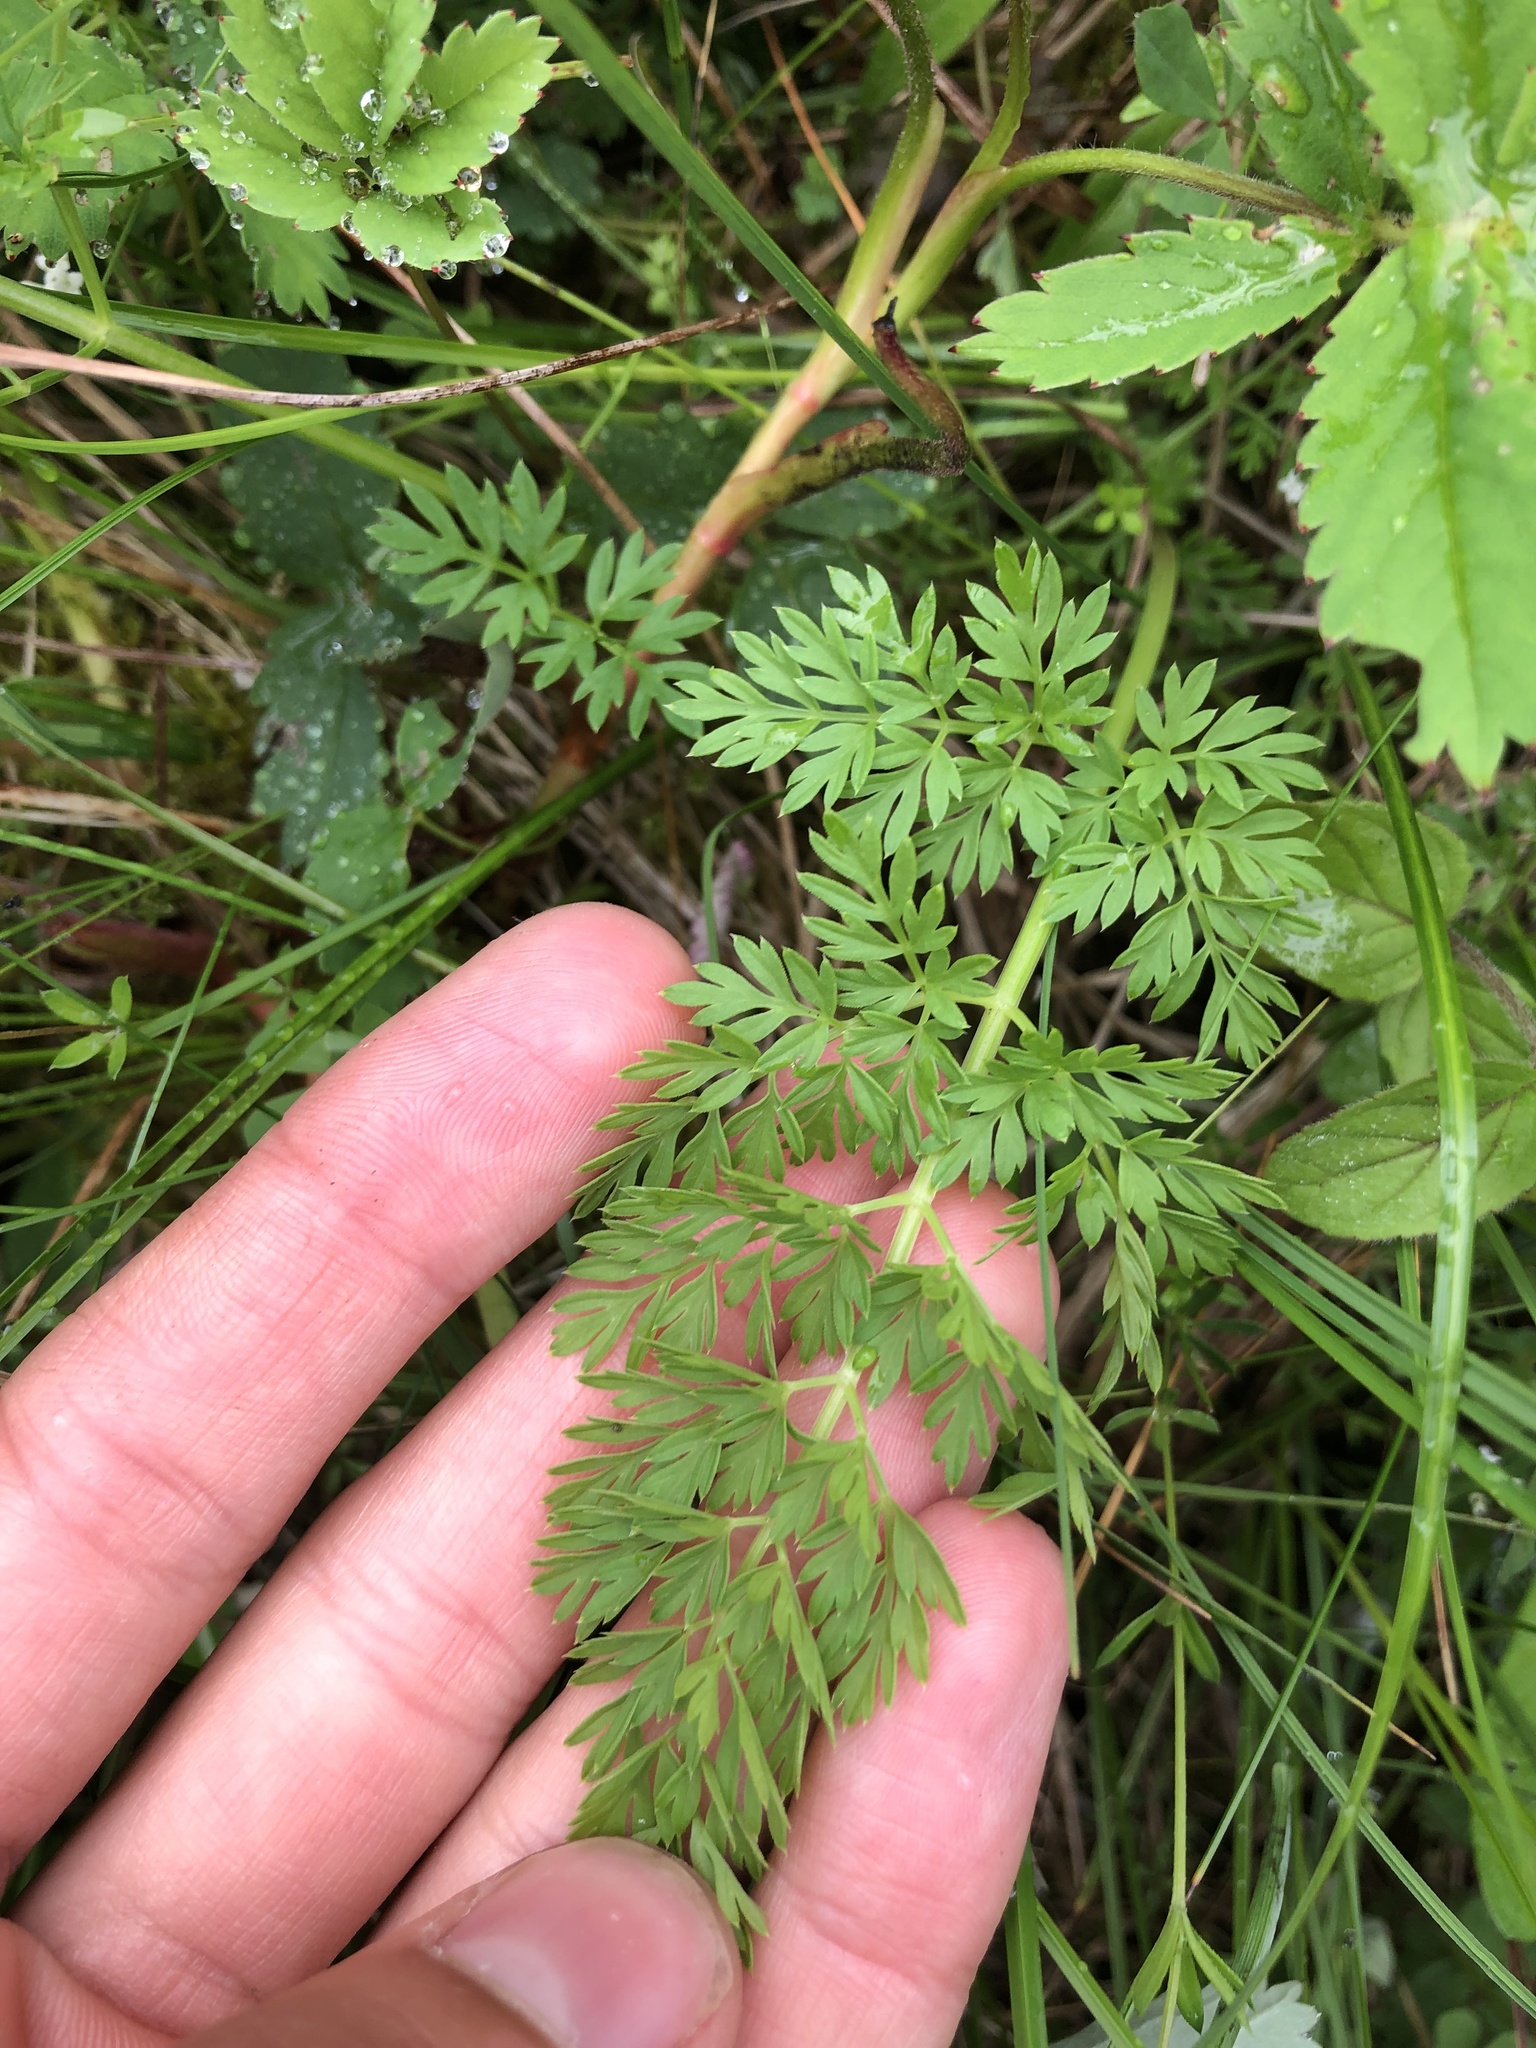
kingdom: Plantae
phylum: Tracheophyta
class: Magnoliopsida
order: Apiales
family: Apiaceae
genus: Selinum
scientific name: Selinum carvifolia
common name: Cambridge milk-parsley
